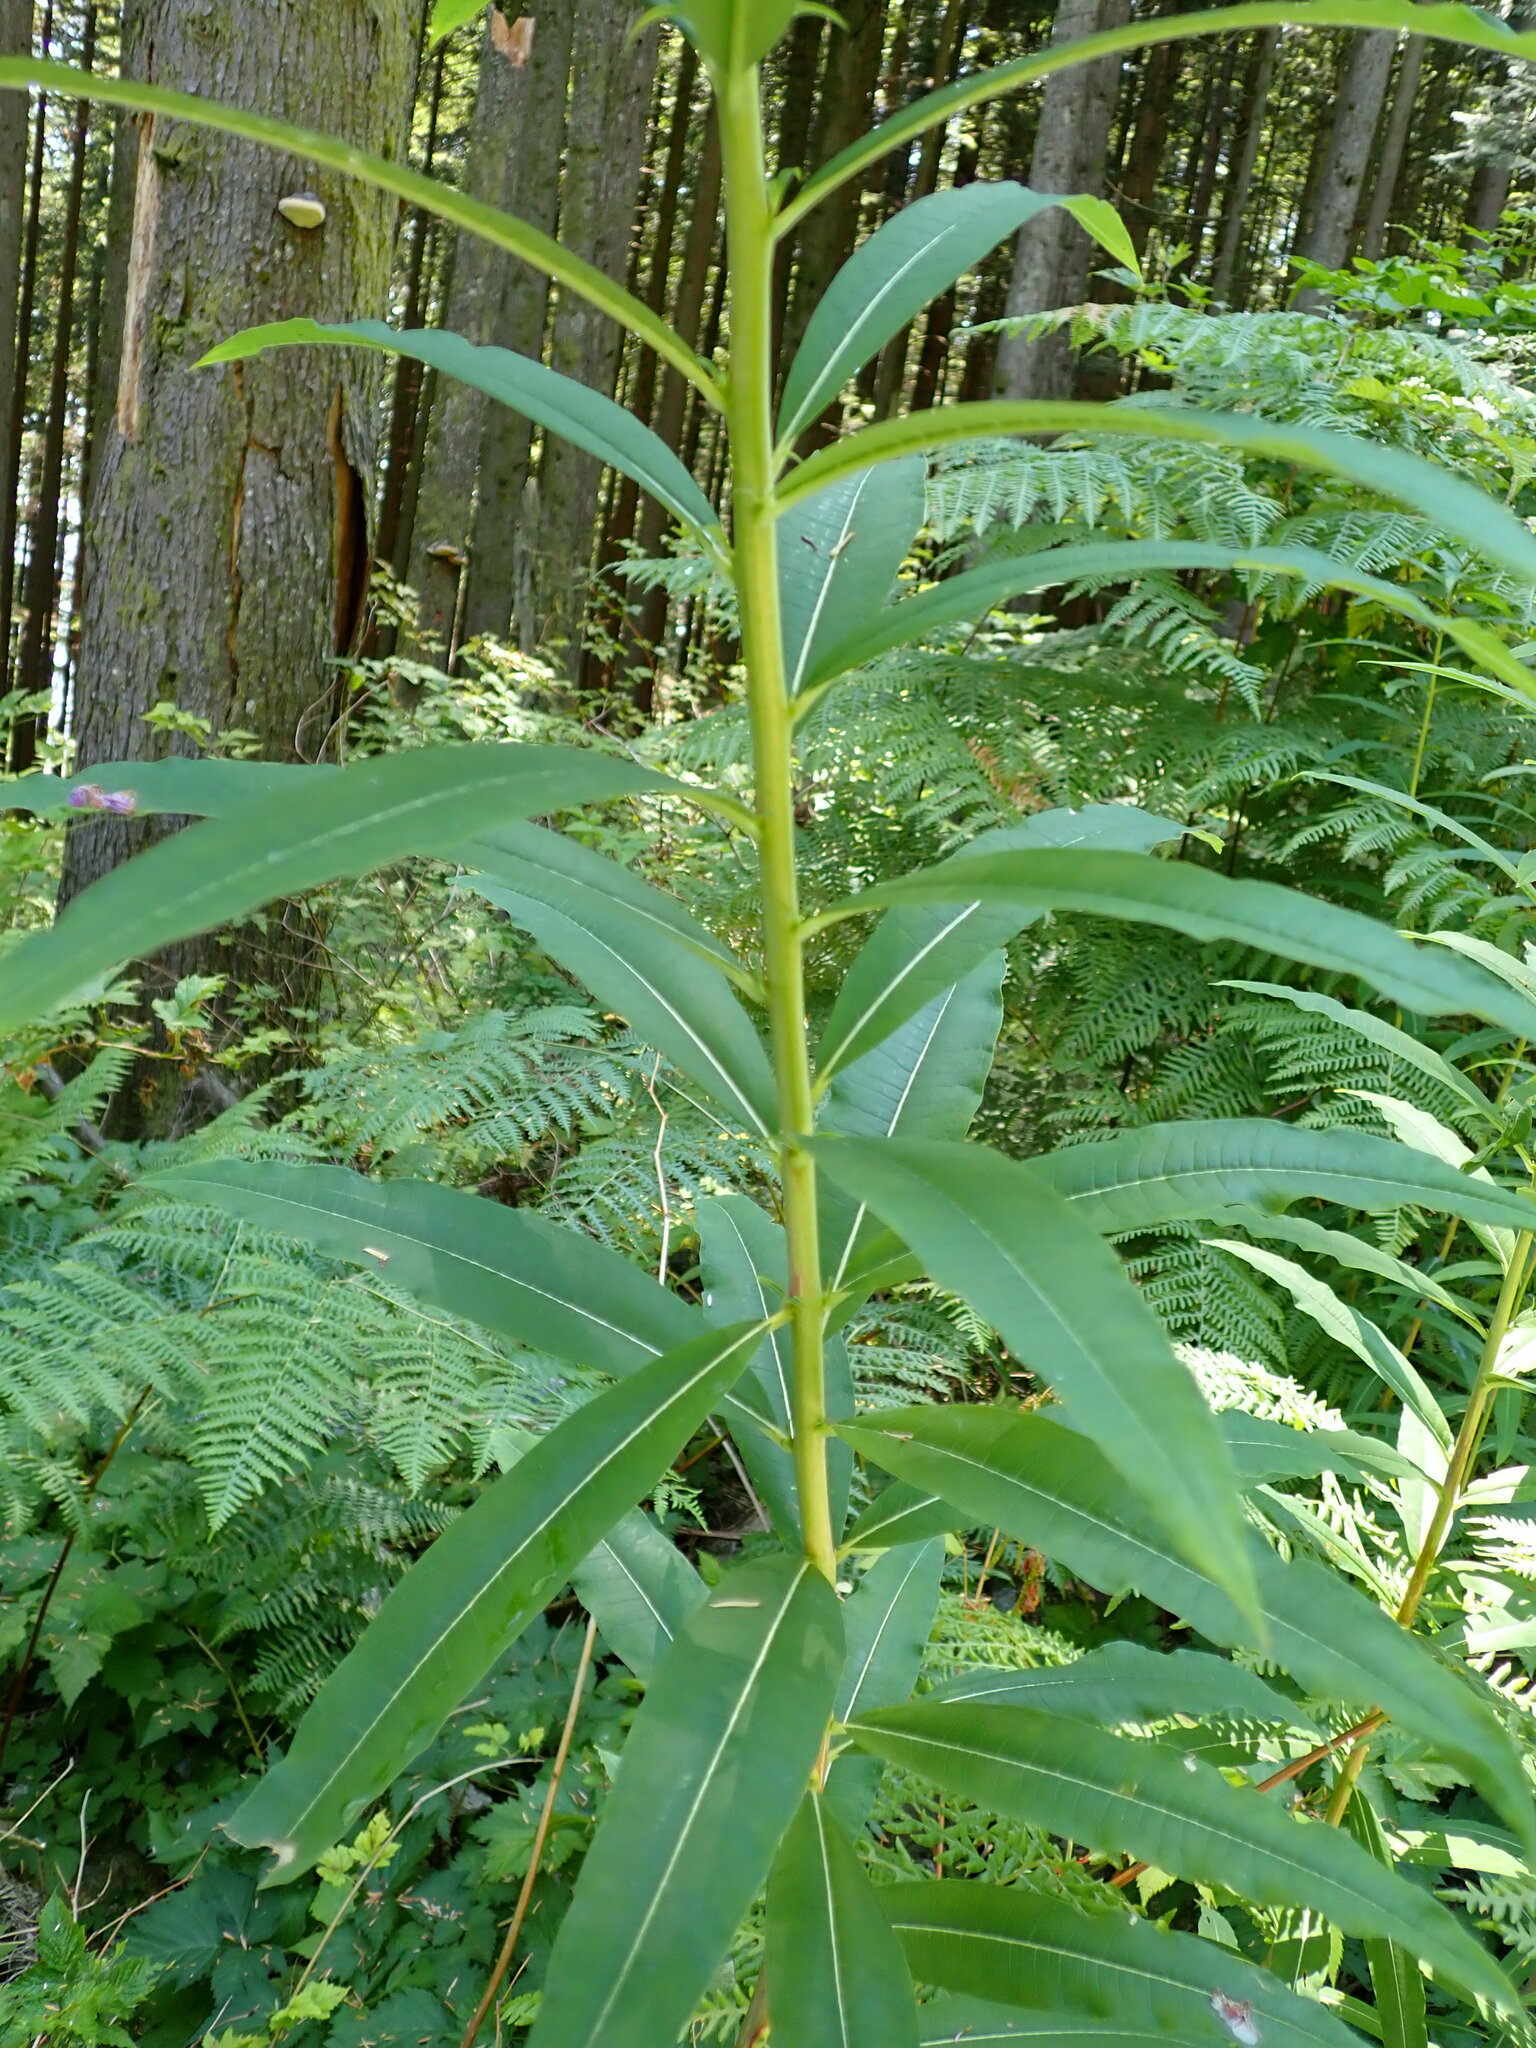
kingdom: Plantae
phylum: Tracheophyta
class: Magnoliopsida
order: Myrtales
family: Onagraceae
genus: Chamaenerion
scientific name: Chamaenerion angustifolium
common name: Fireweed
